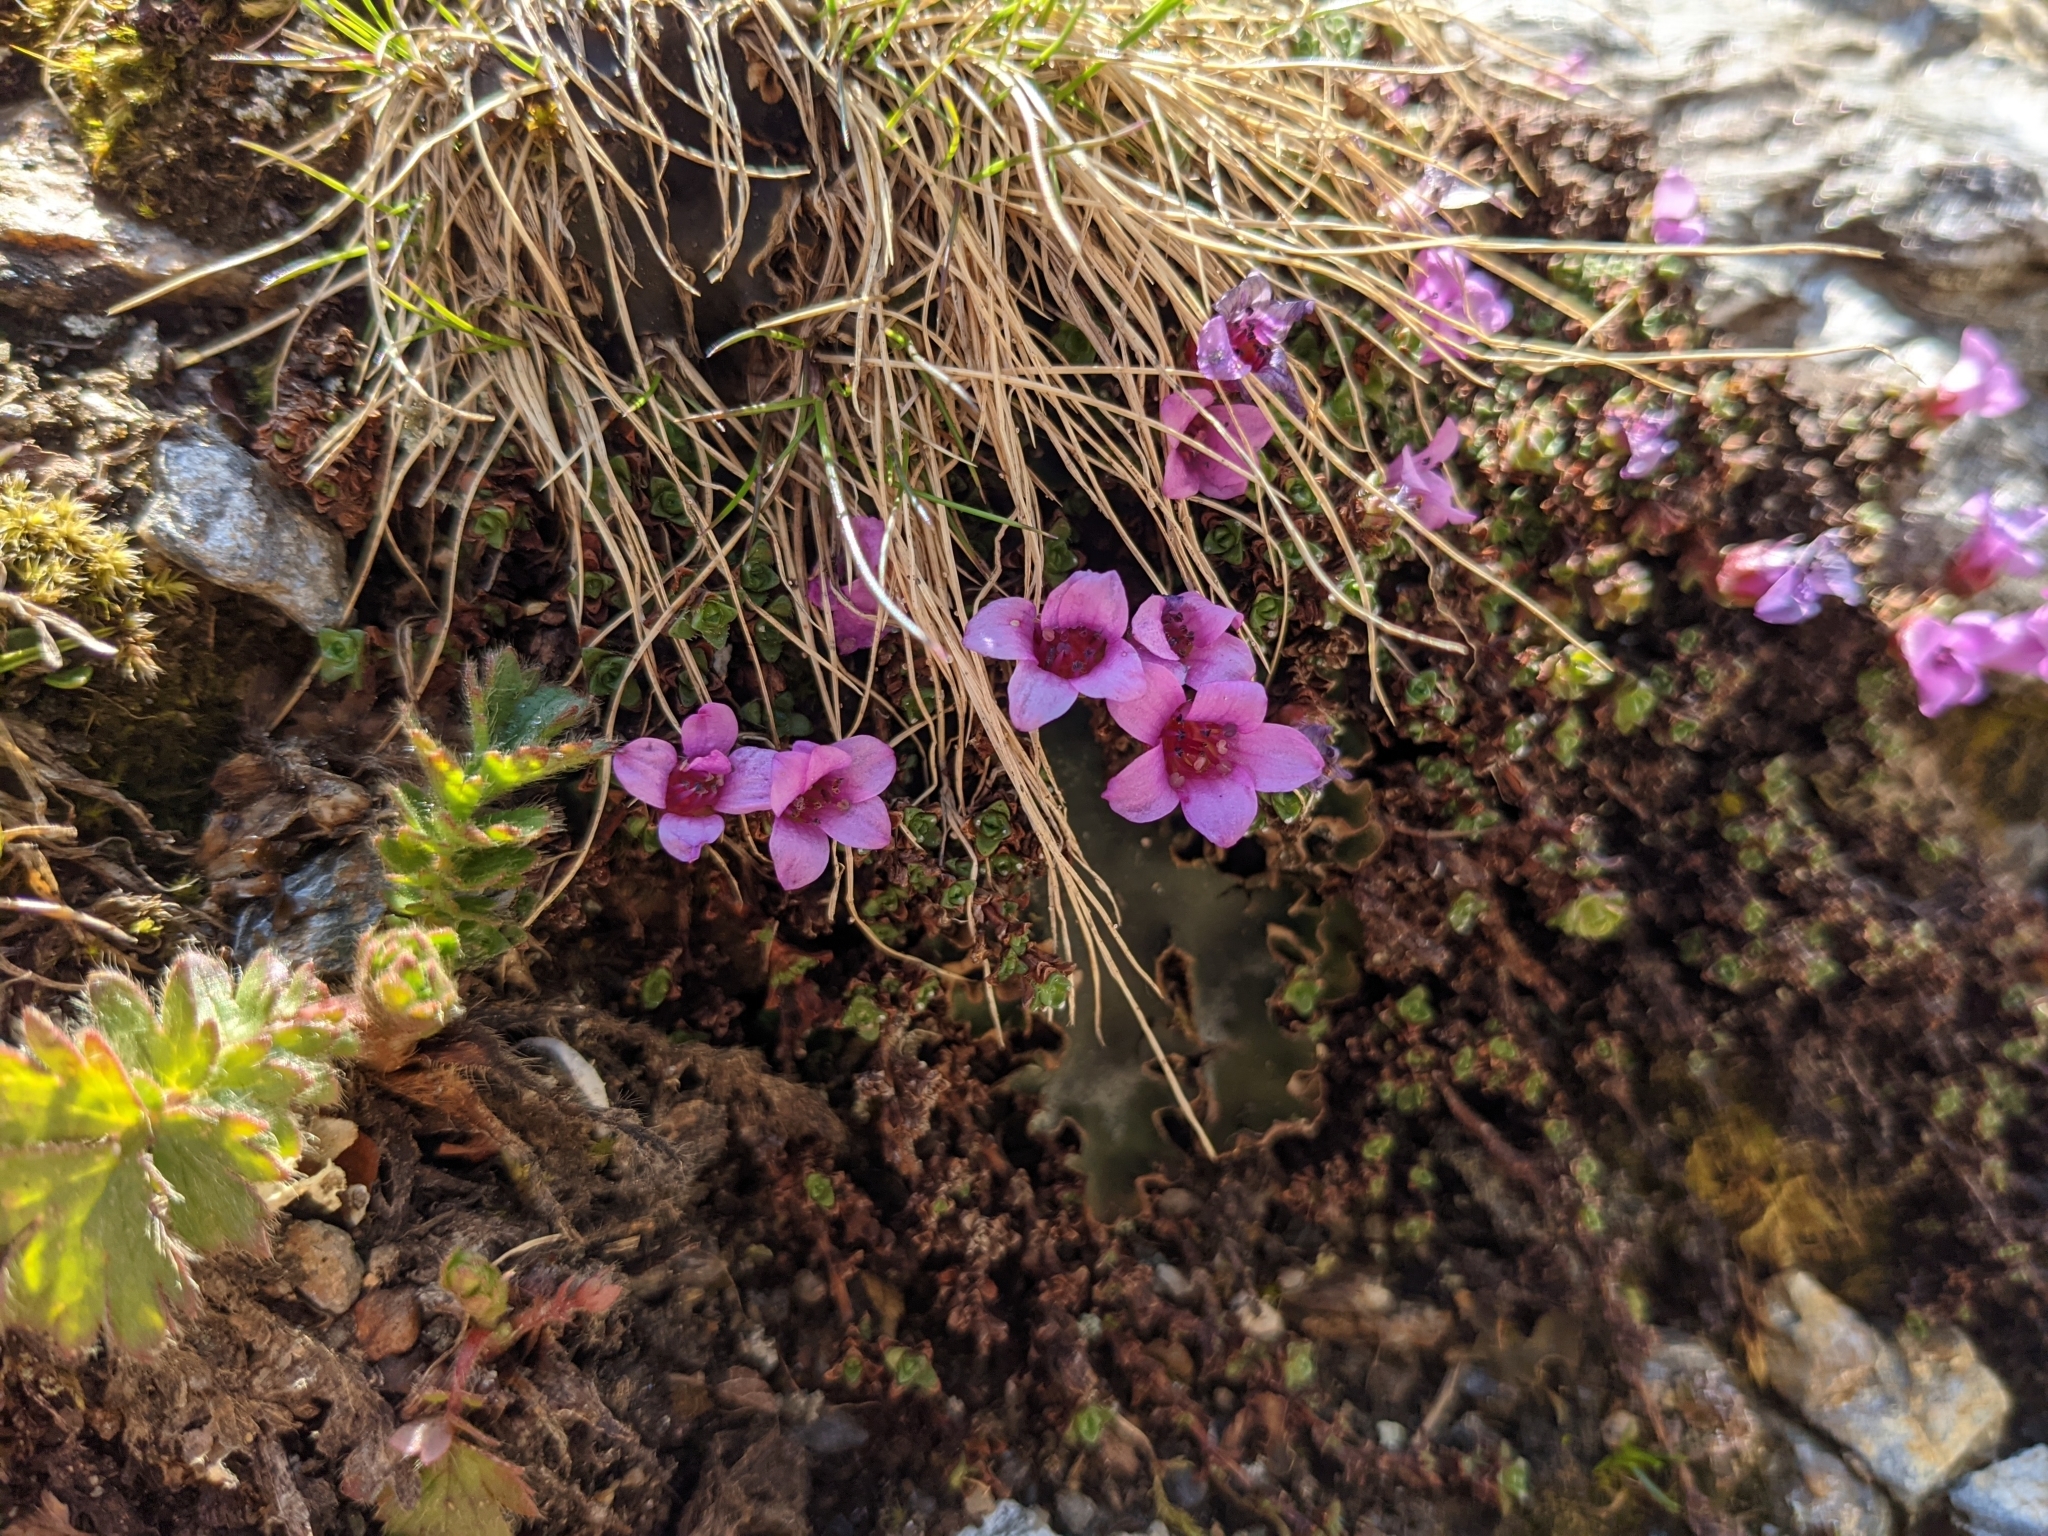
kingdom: Plantae
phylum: Tracheophyta
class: Magnoliopsida
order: Saxifragales
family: Saxifragaceae
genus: Saxifraga
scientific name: Saxifraga oppositifolia
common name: Purple saxifrage
